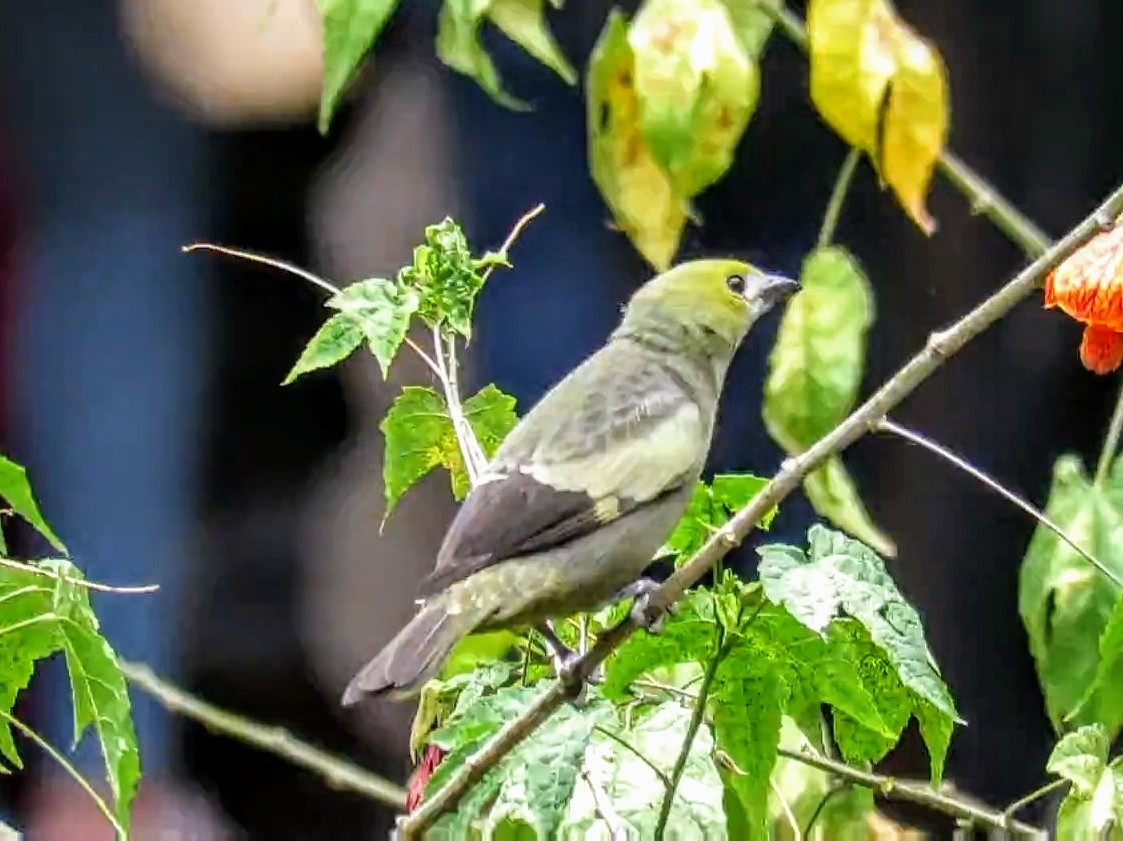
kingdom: Animalia
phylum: Chordata
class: Aves
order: Passeriformes
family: Thraupidae
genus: Thraupis
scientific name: Thraupis palmarum
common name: Palm tanager
